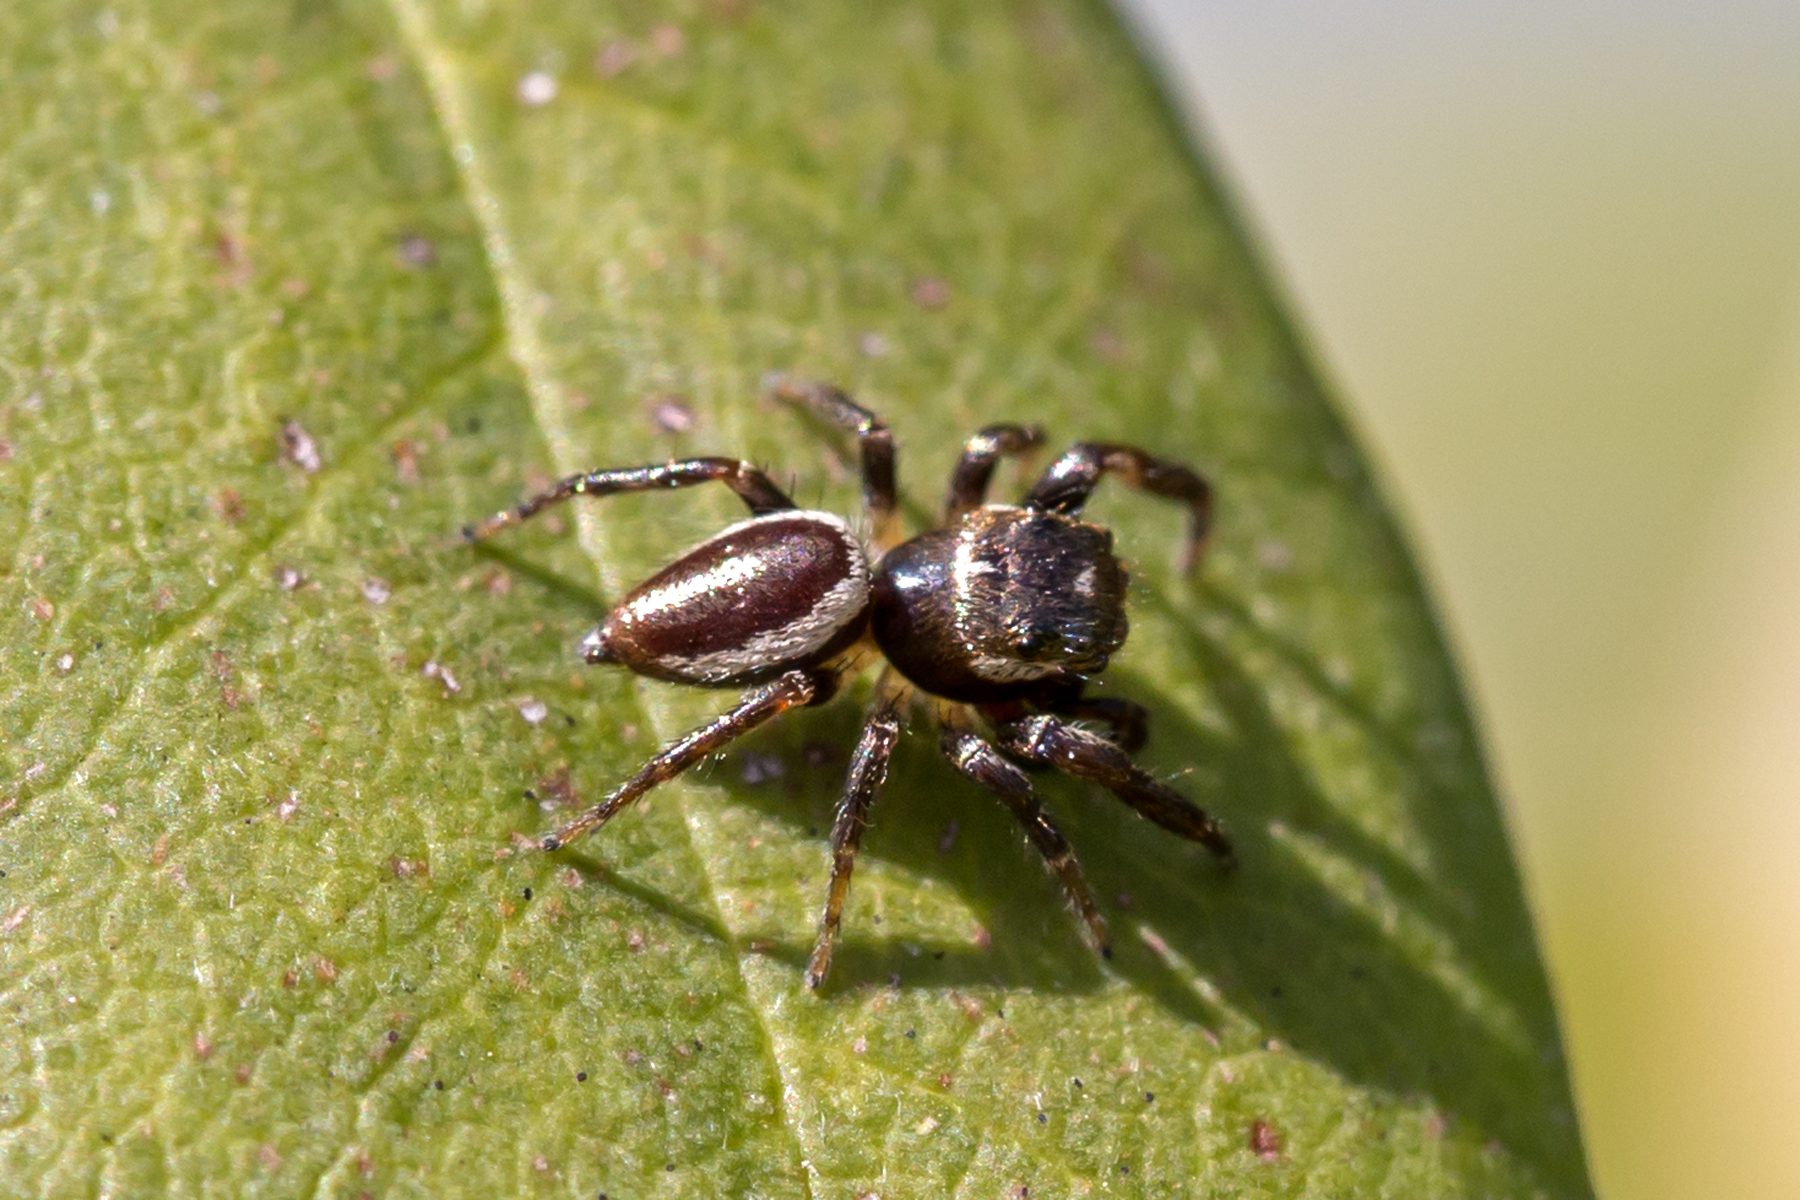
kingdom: Animalia
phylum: Arthropoda
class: Arachnida
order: Araneae
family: Salticidae
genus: Eris
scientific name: Eris militaris
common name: Bronze jumper
